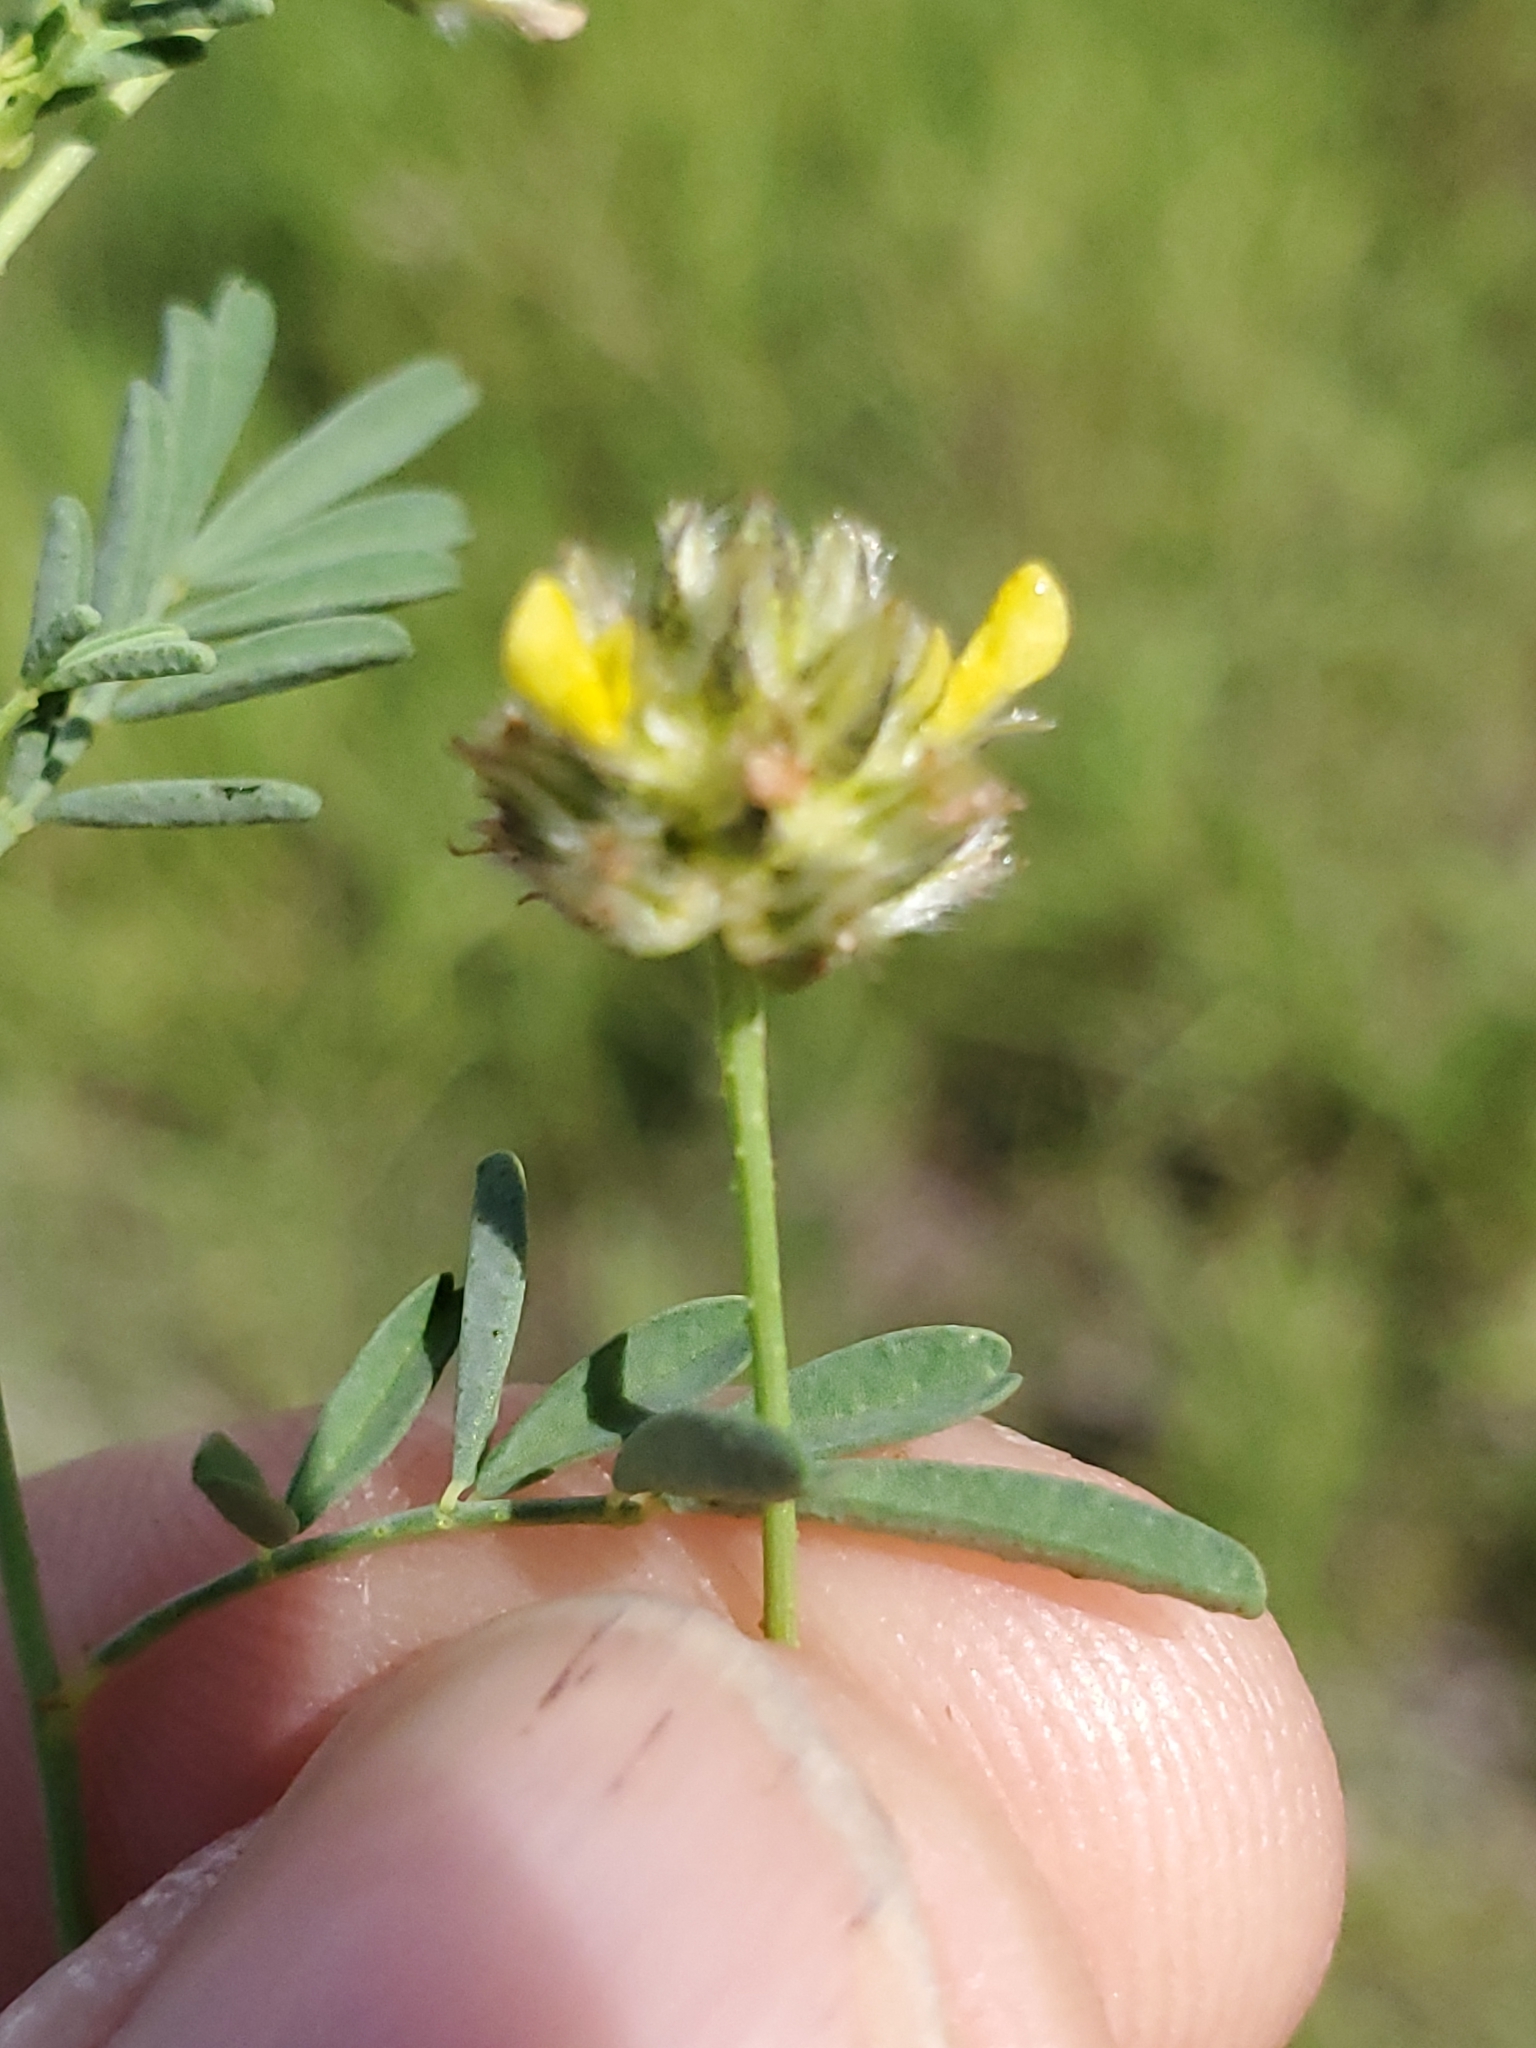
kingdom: Plantae
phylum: Tracheophyta
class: Magnoliopsida
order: Fabales
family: Fabaceae
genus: Dalea
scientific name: Dalea brachystachya
